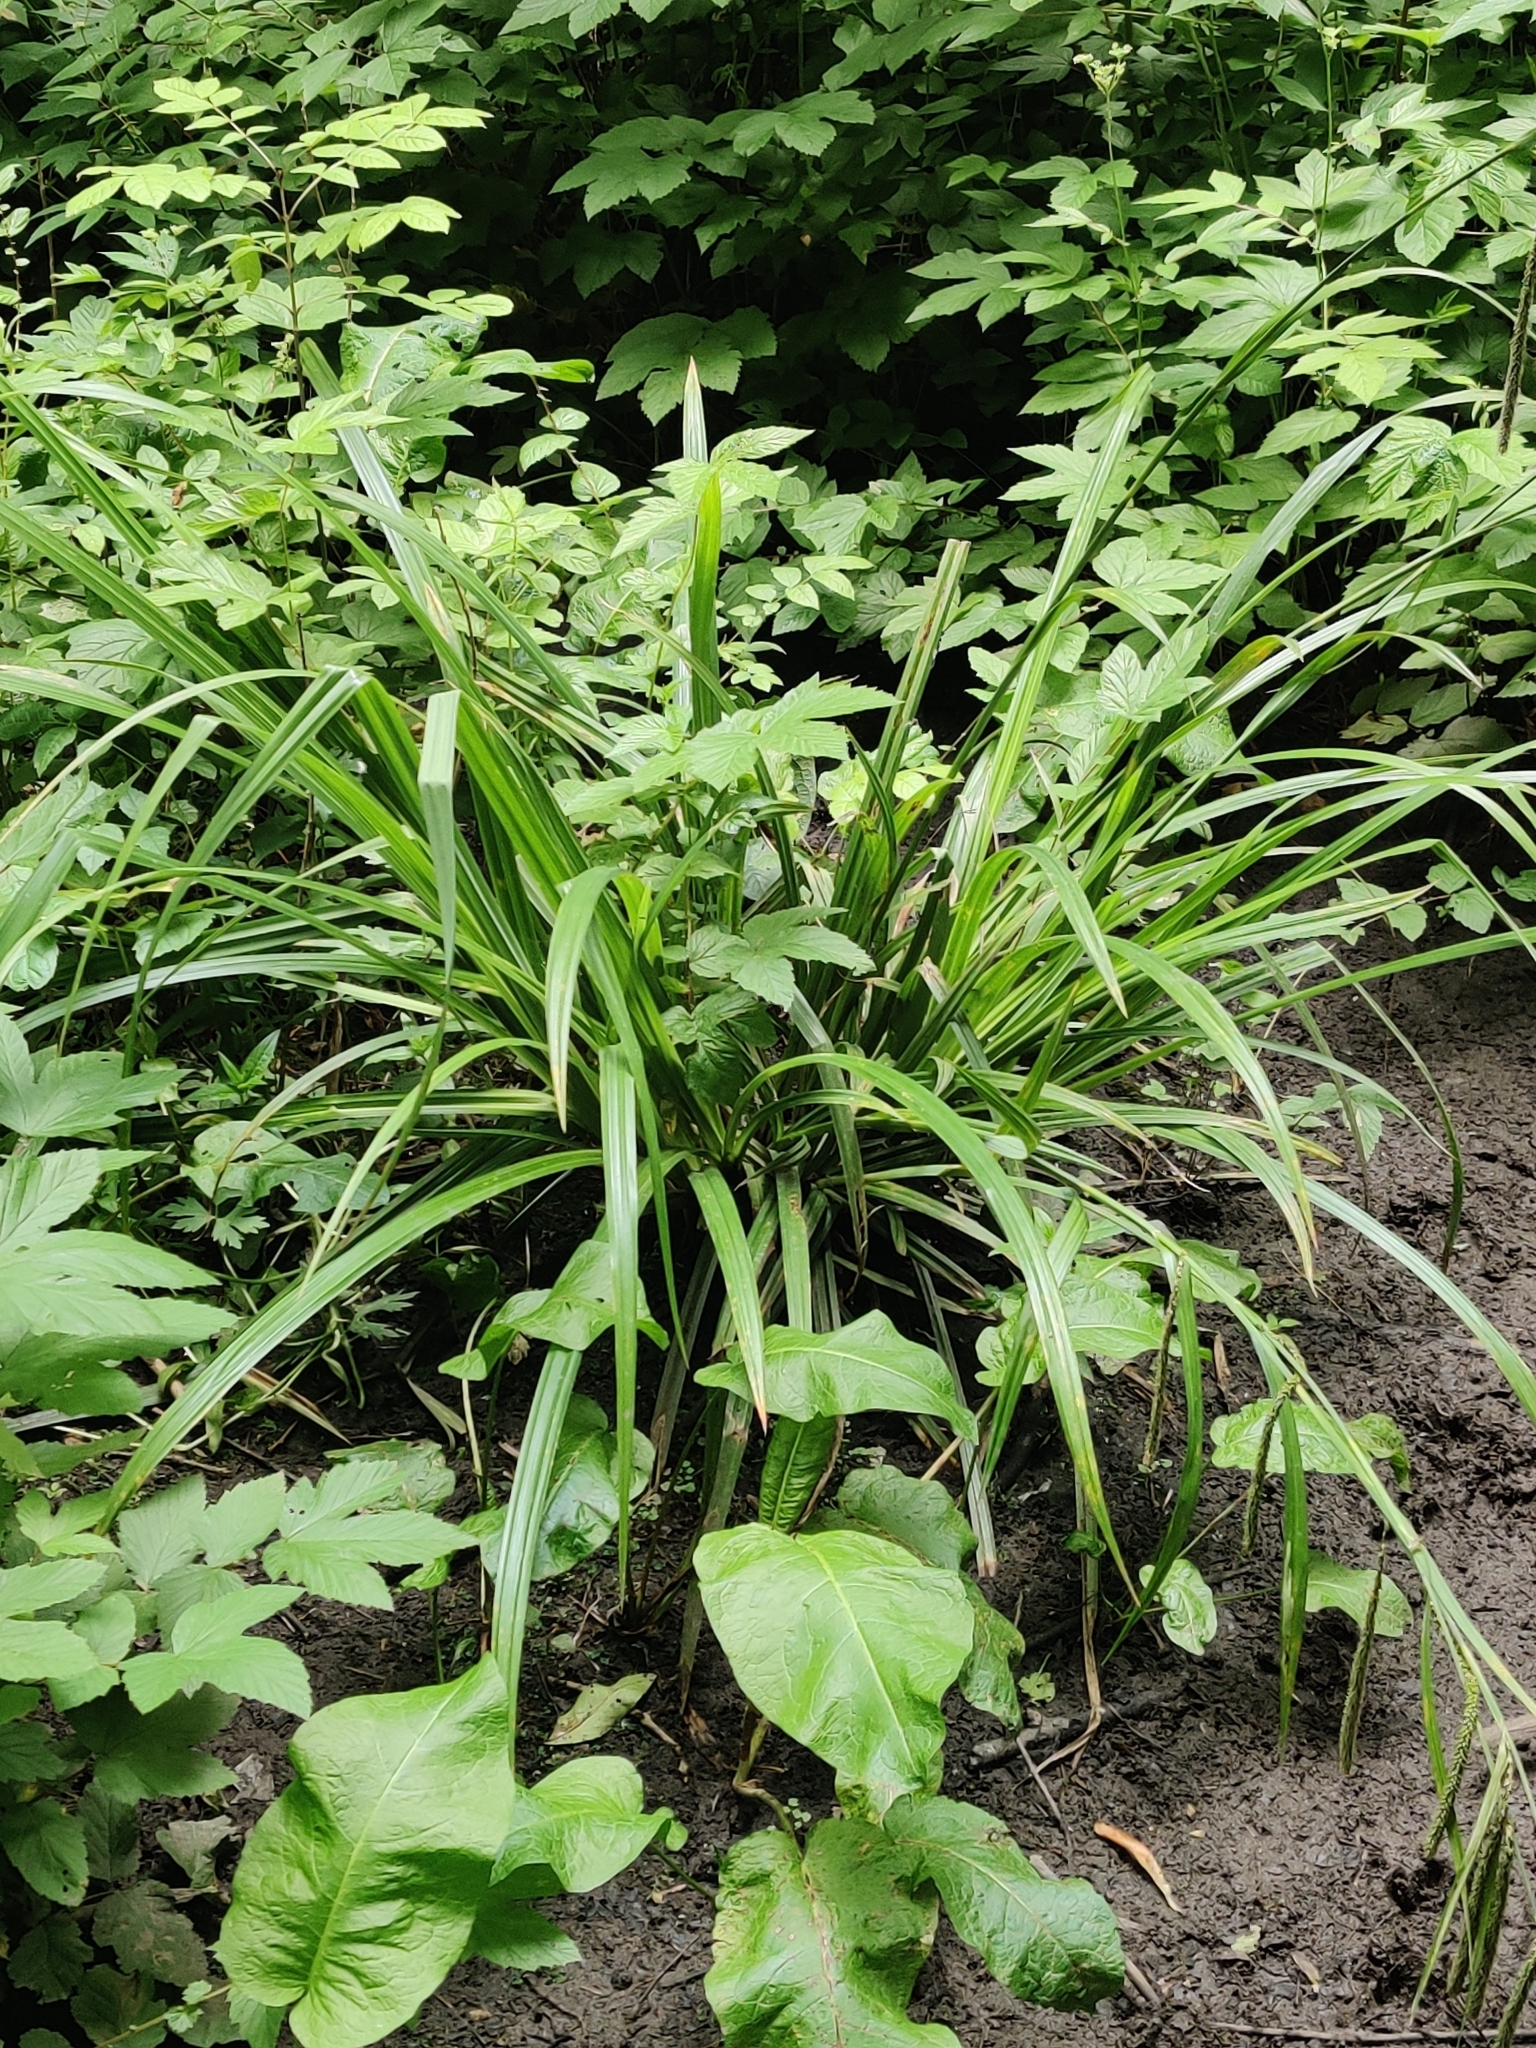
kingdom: Plantae
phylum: Tracheophyta
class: Liliopsida
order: Poales
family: Cyperaceae
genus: Carex
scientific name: Carex pendula
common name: Pendulous sedge
